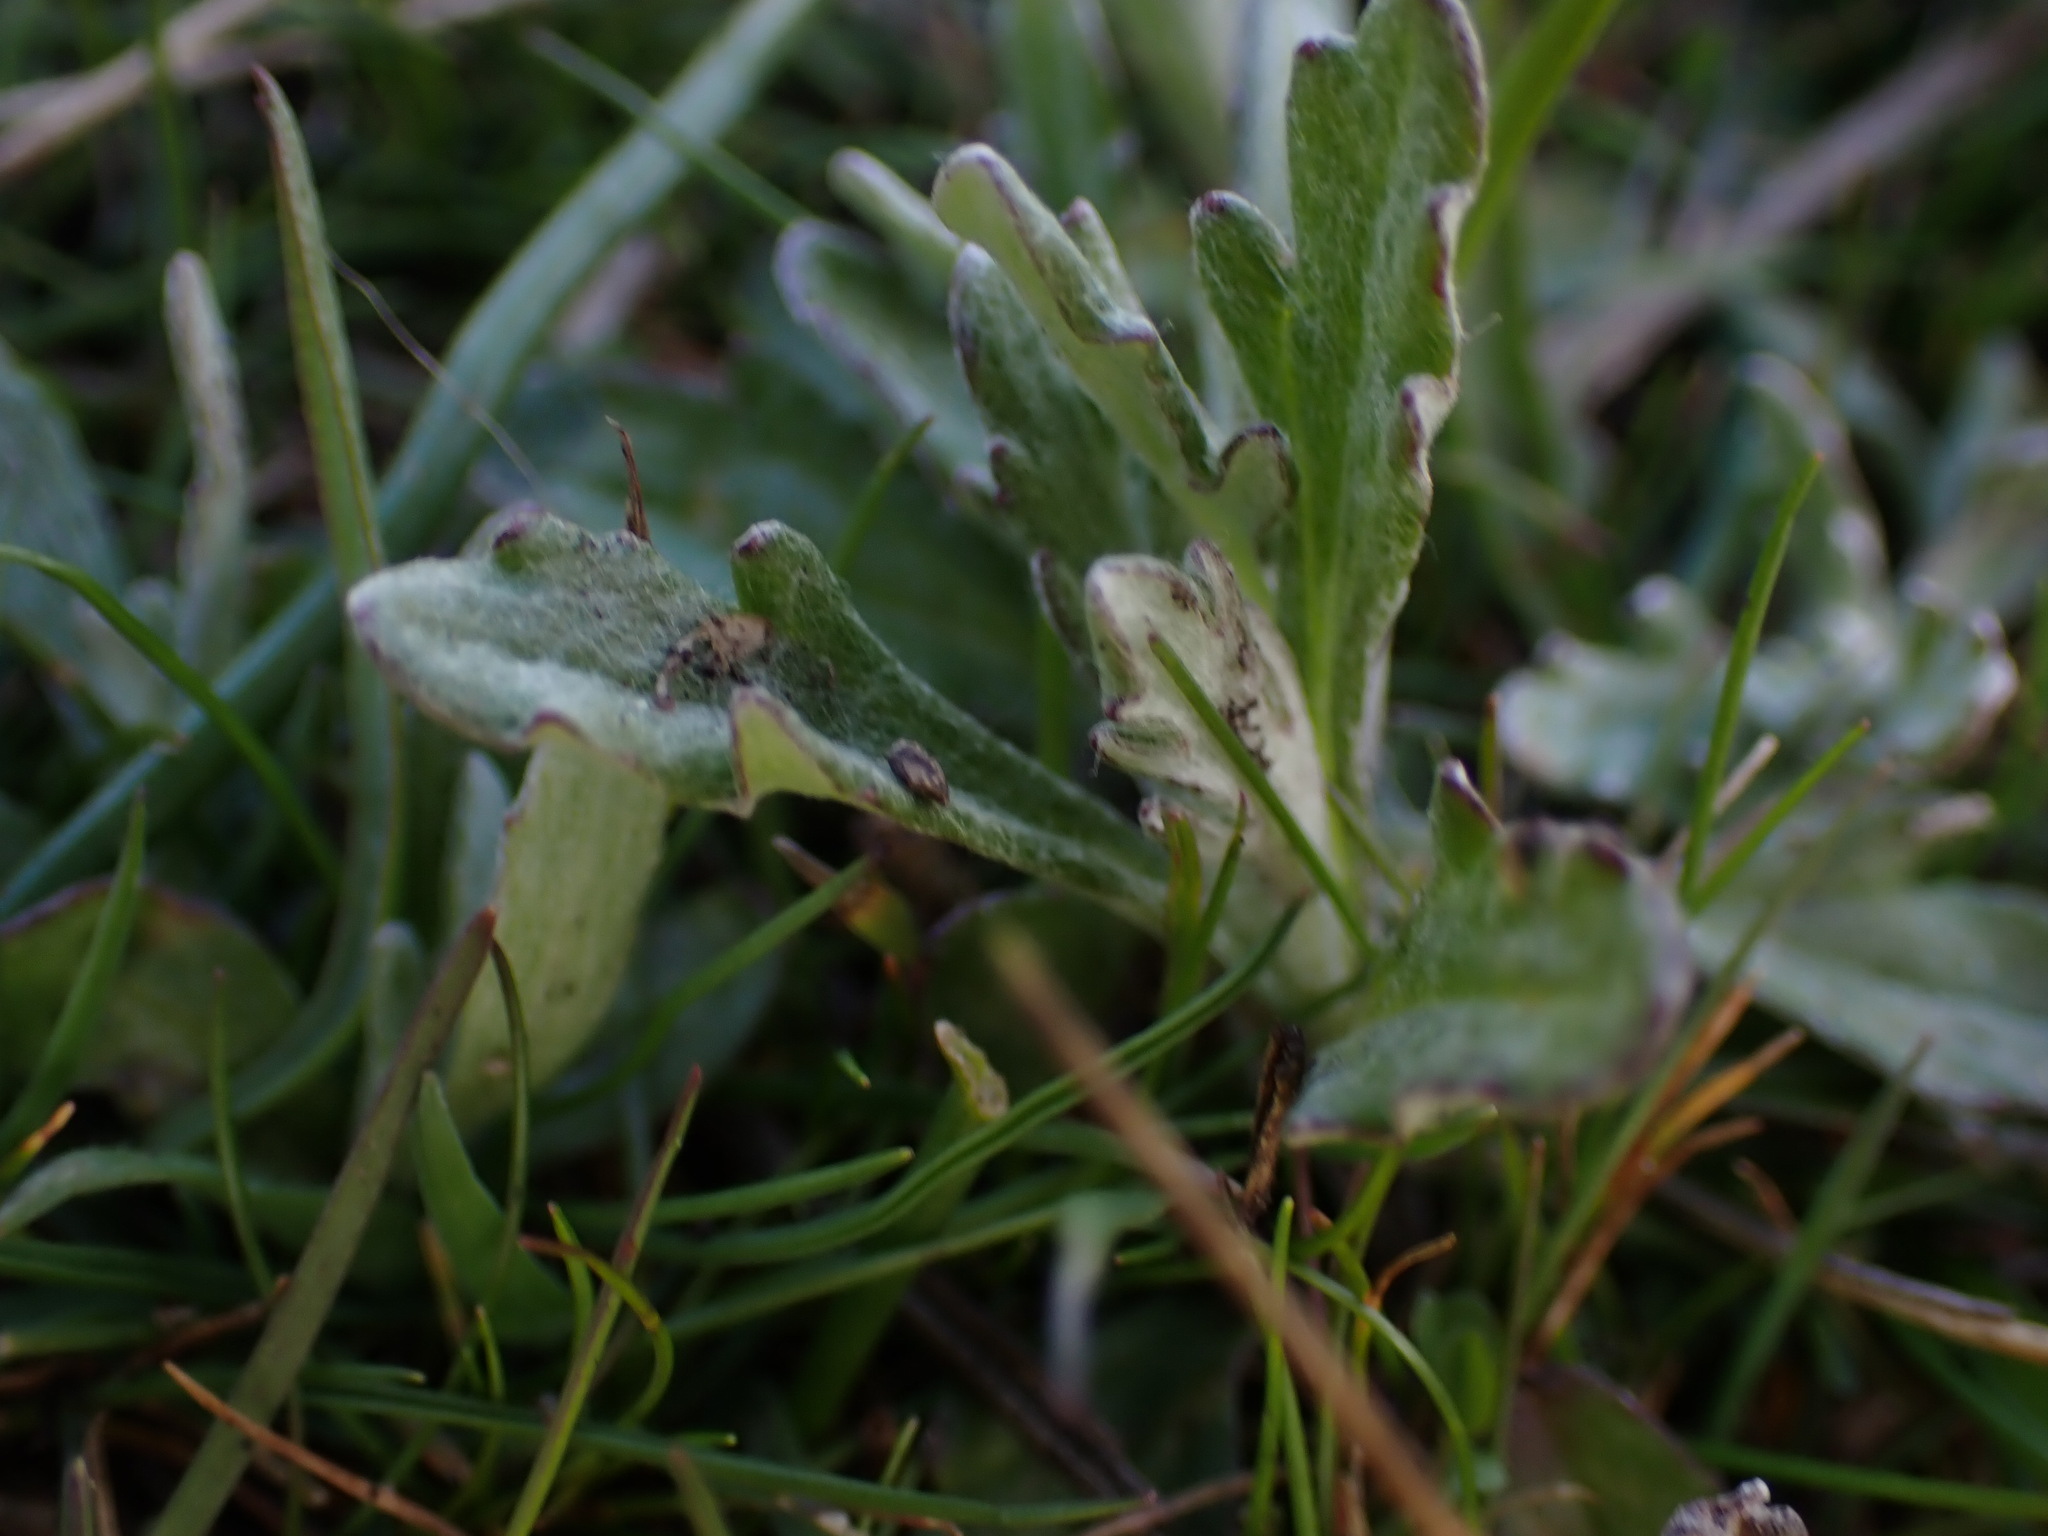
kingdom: Plantae
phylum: Tracheophyta
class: Magnoliopsida
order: Asterales
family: Asteraceae
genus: Eriophyllum
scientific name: Eriophyllum lanatum
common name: Common woolly-sunflower
